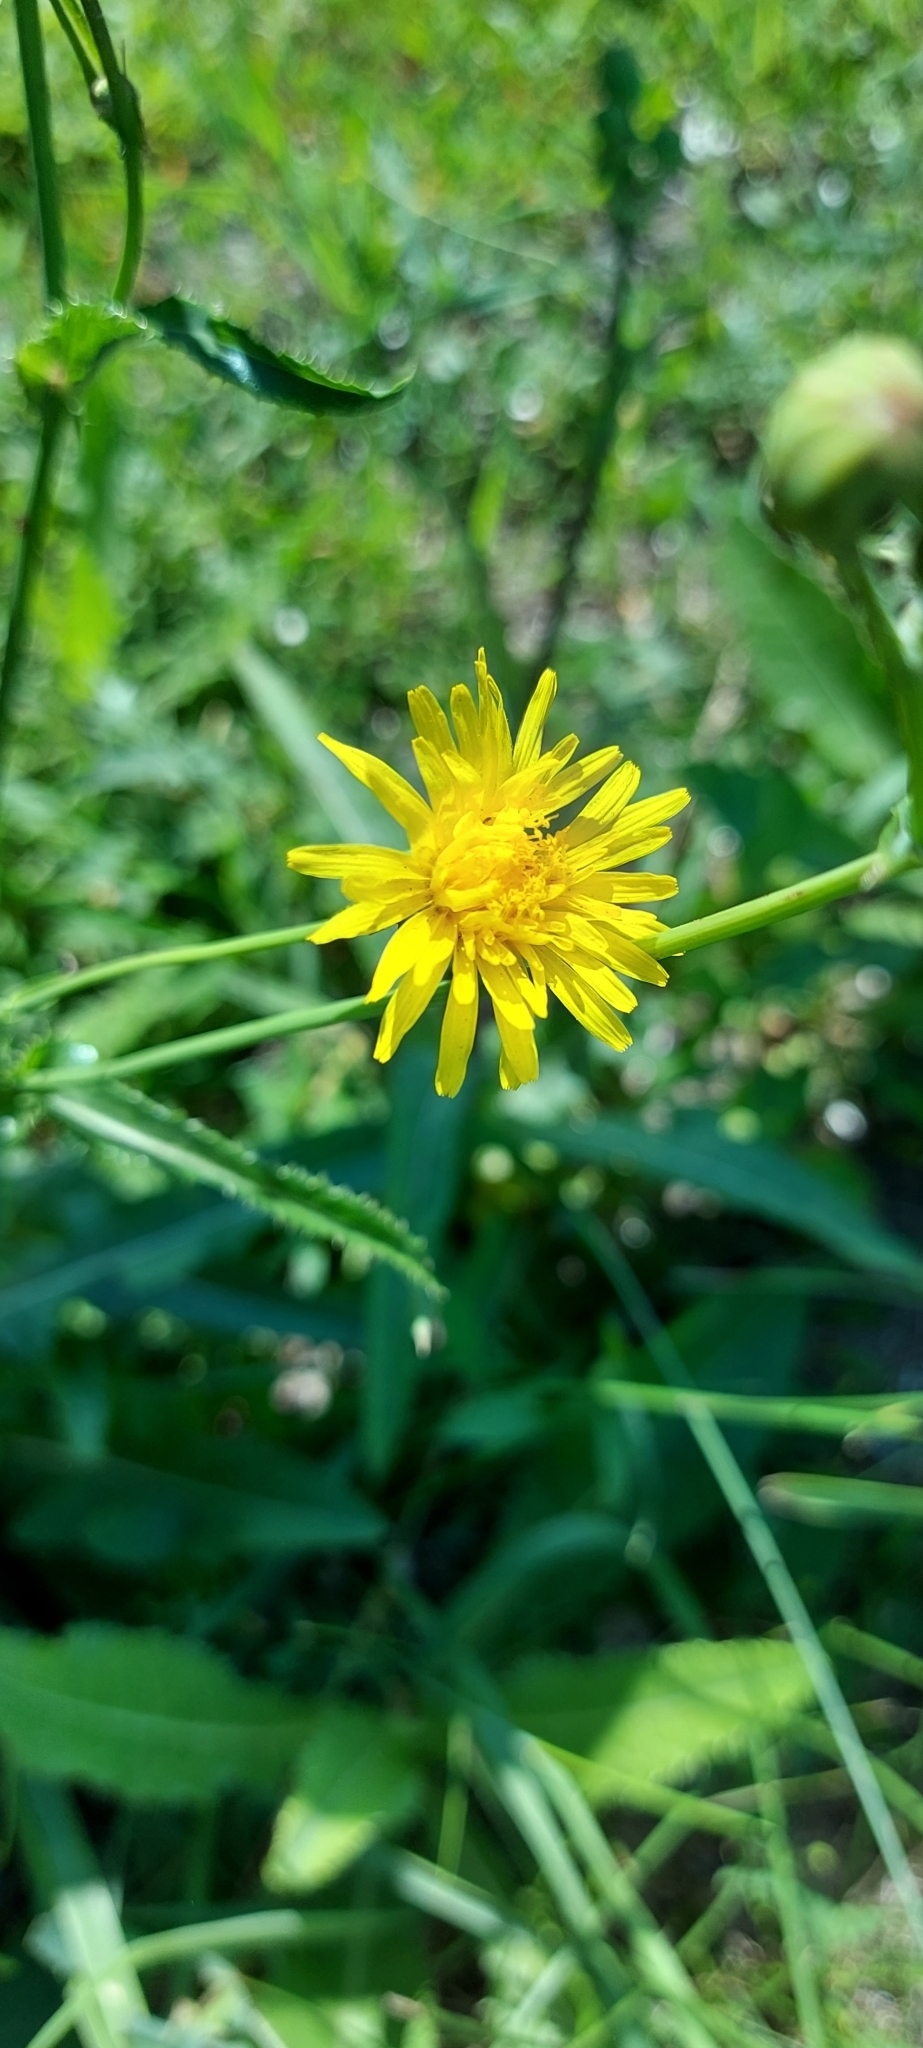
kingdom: Plantae
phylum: Tracheophyta
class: Magnoliopsida
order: Asterales
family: Asteraceae
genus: Sonchus
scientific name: Sonchus arvensis
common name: Perennial sow-thistle
